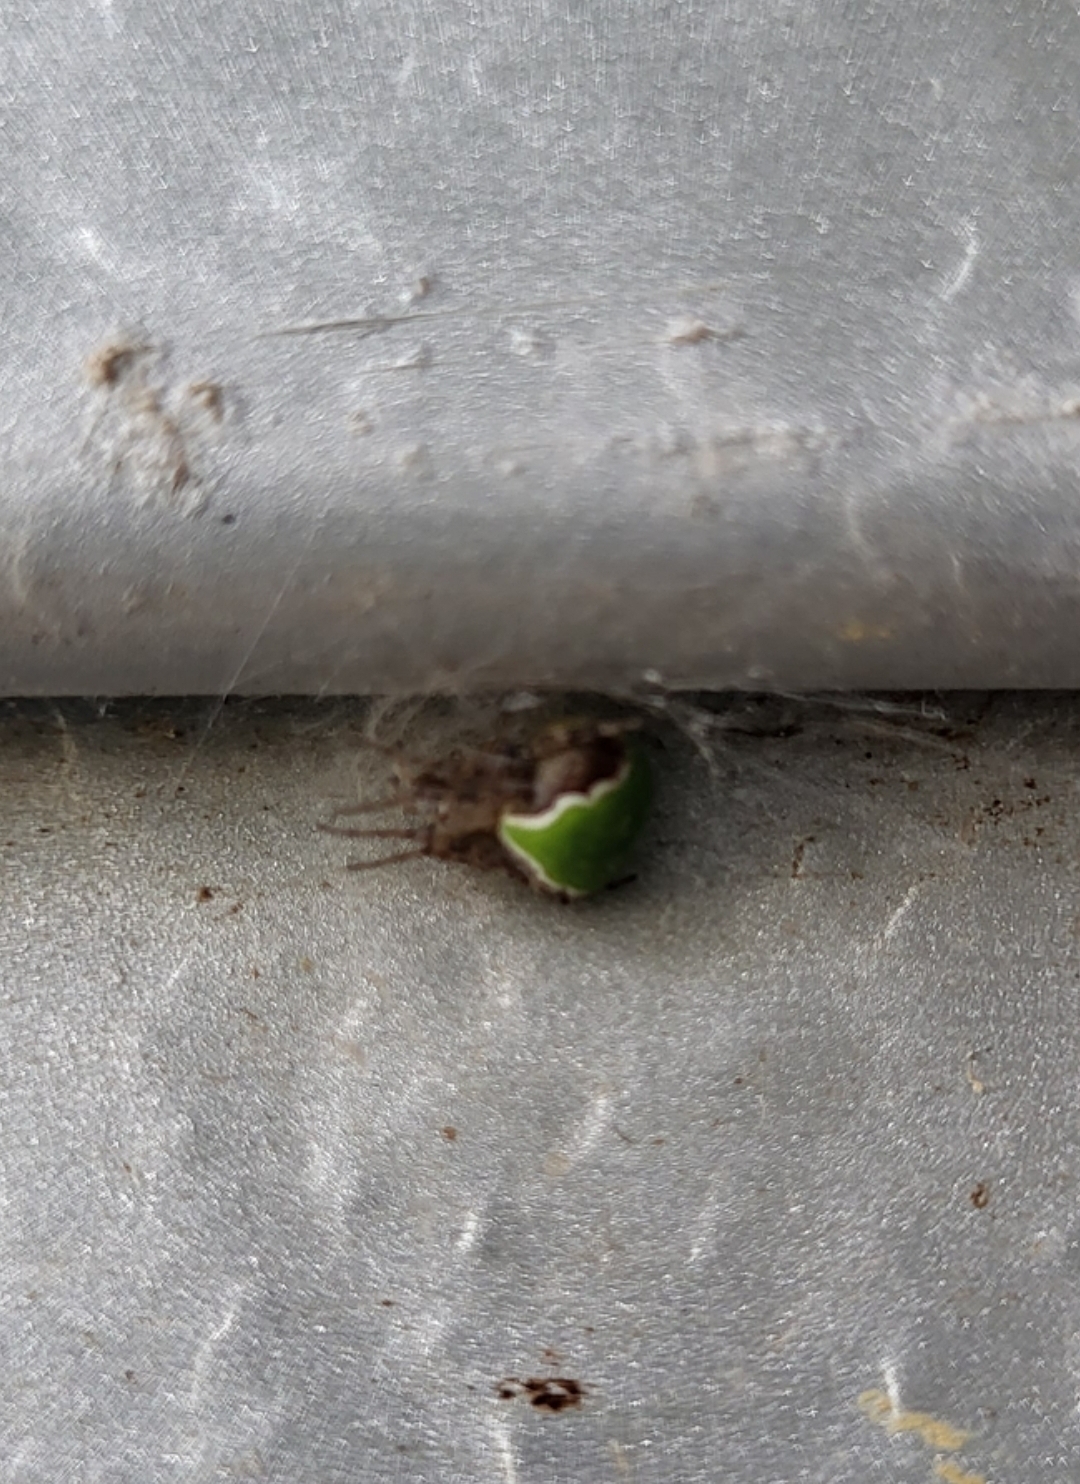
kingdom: Animalia
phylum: Arthropoda
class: Arachnida
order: Araneae
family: Araneidae
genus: Araneus
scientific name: Araneus detrimentosus
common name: Orb weavers
